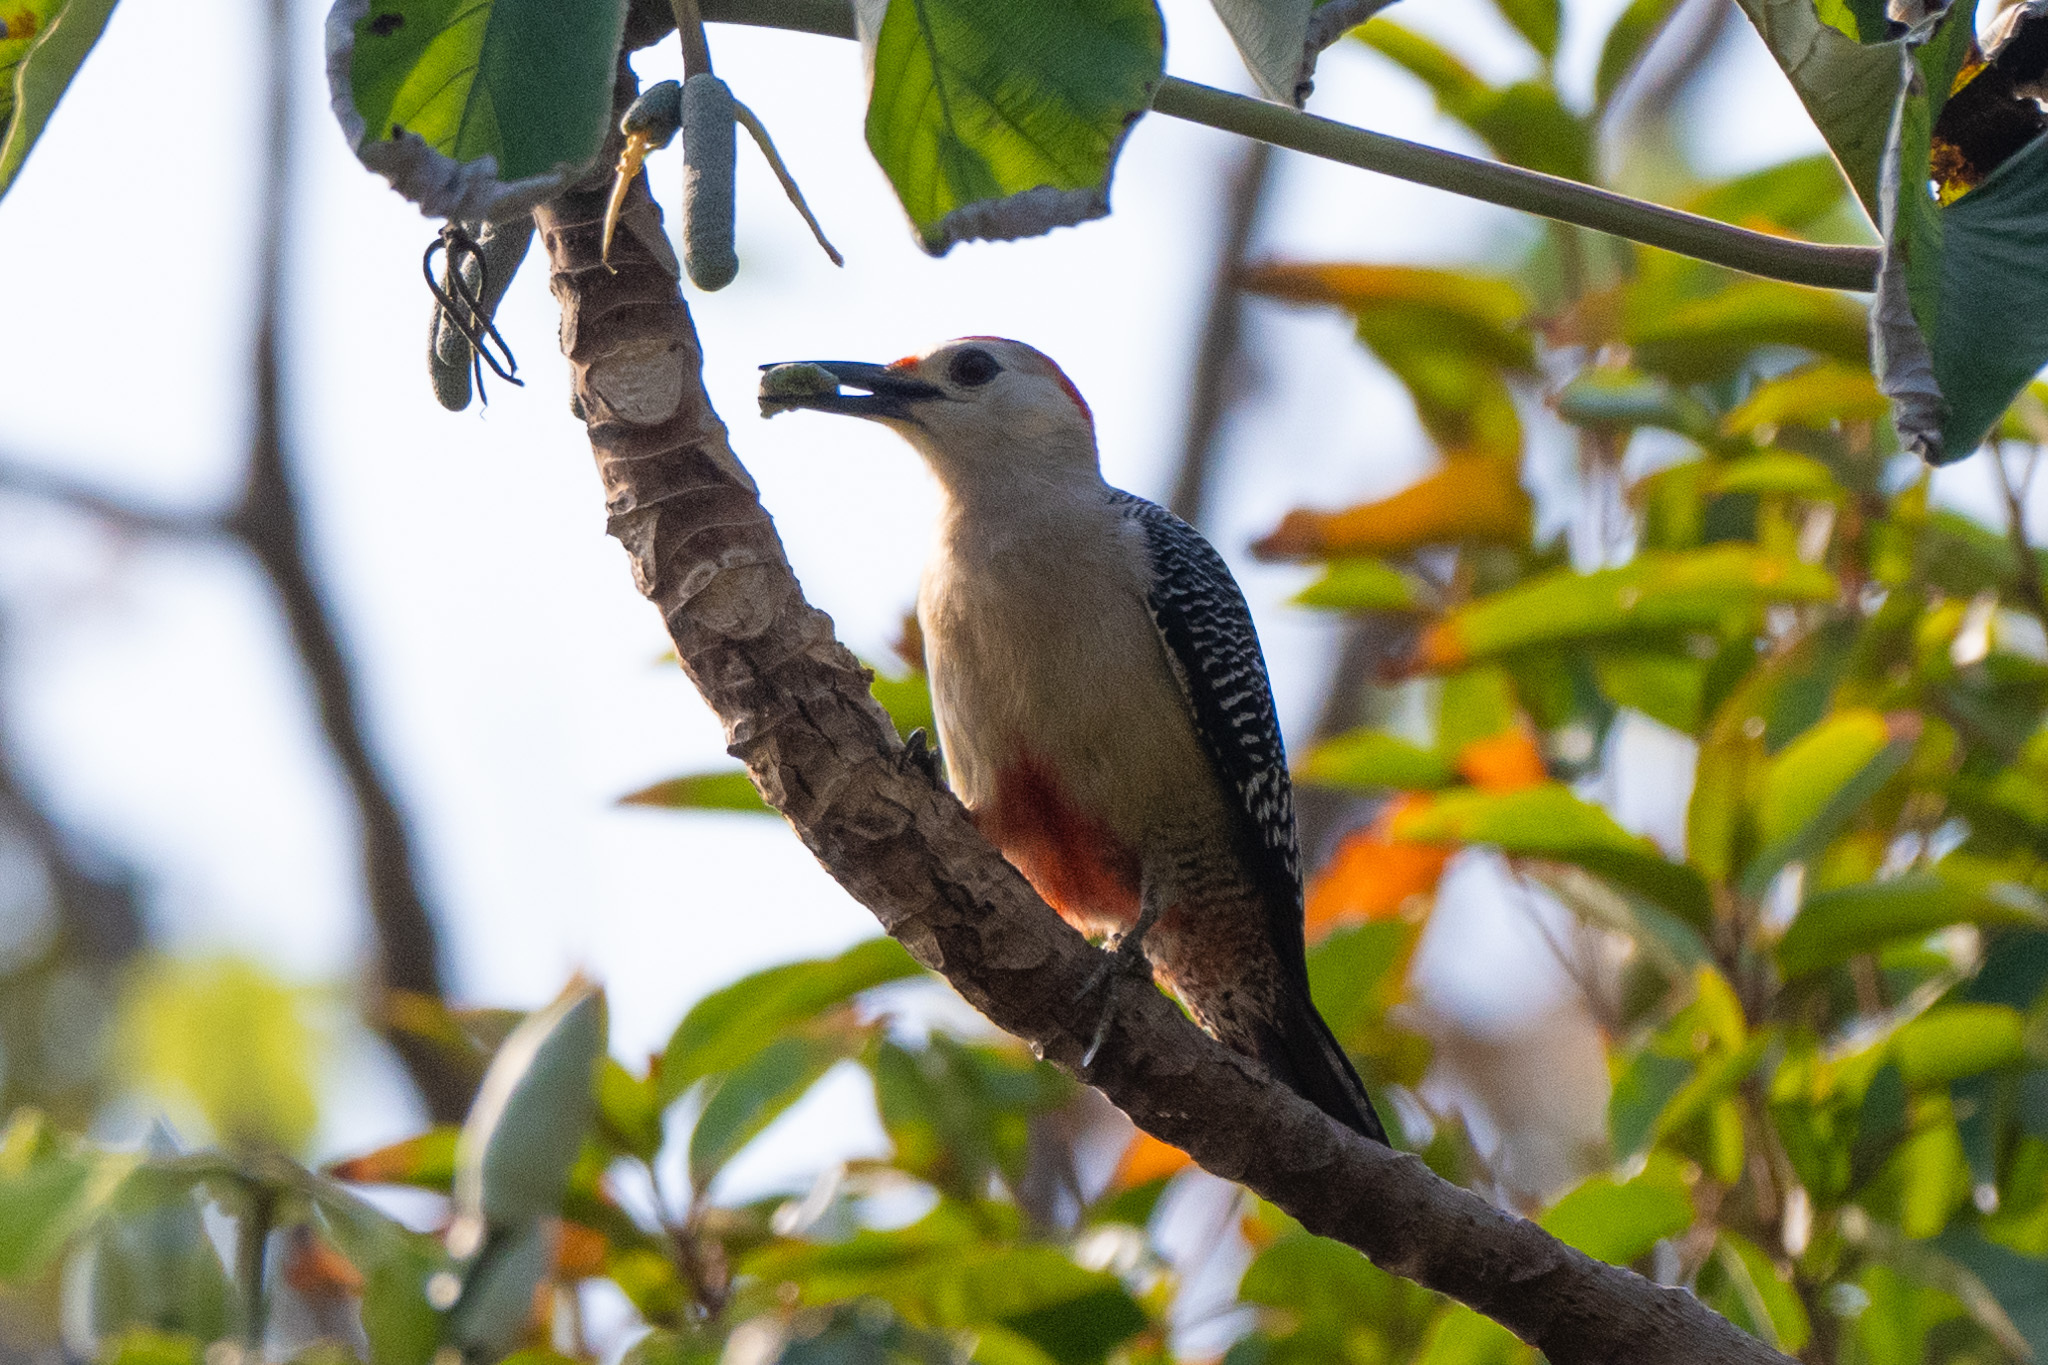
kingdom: Animalia
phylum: Chordata
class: Aves
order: Piciformes
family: Picidae
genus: Melanerpes
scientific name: Melanerpes aurifrons
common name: Golden-fronted woodpecker
